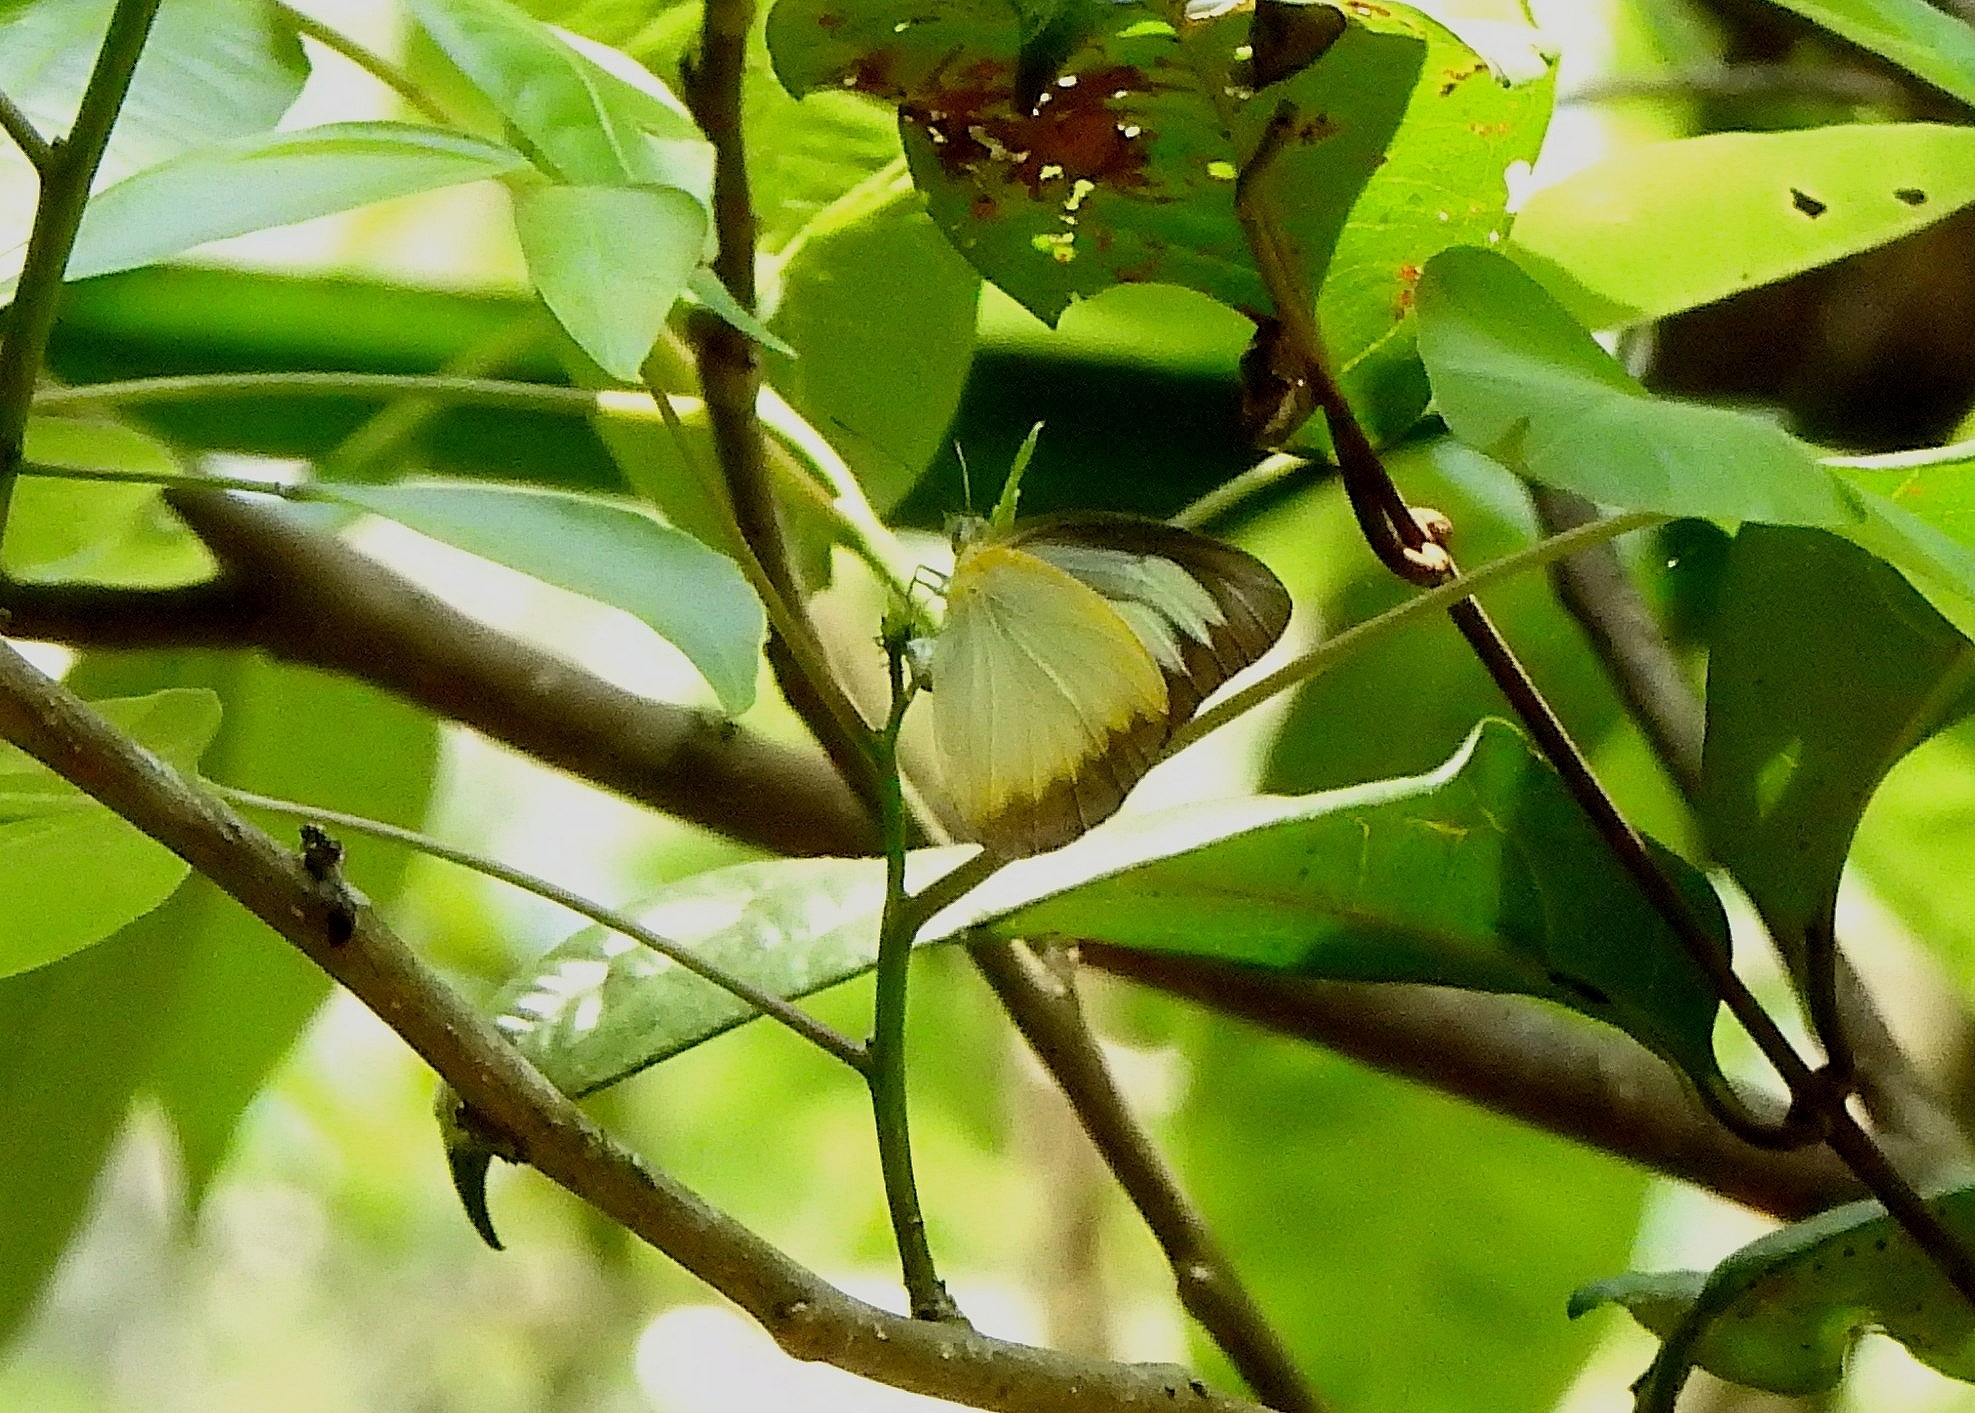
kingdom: Animalia
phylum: Arthropoda
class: Insecta
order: Lepidoptera
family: Pieridae
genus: Appias
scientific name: Appias lyncida
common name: Chocolate albatross
